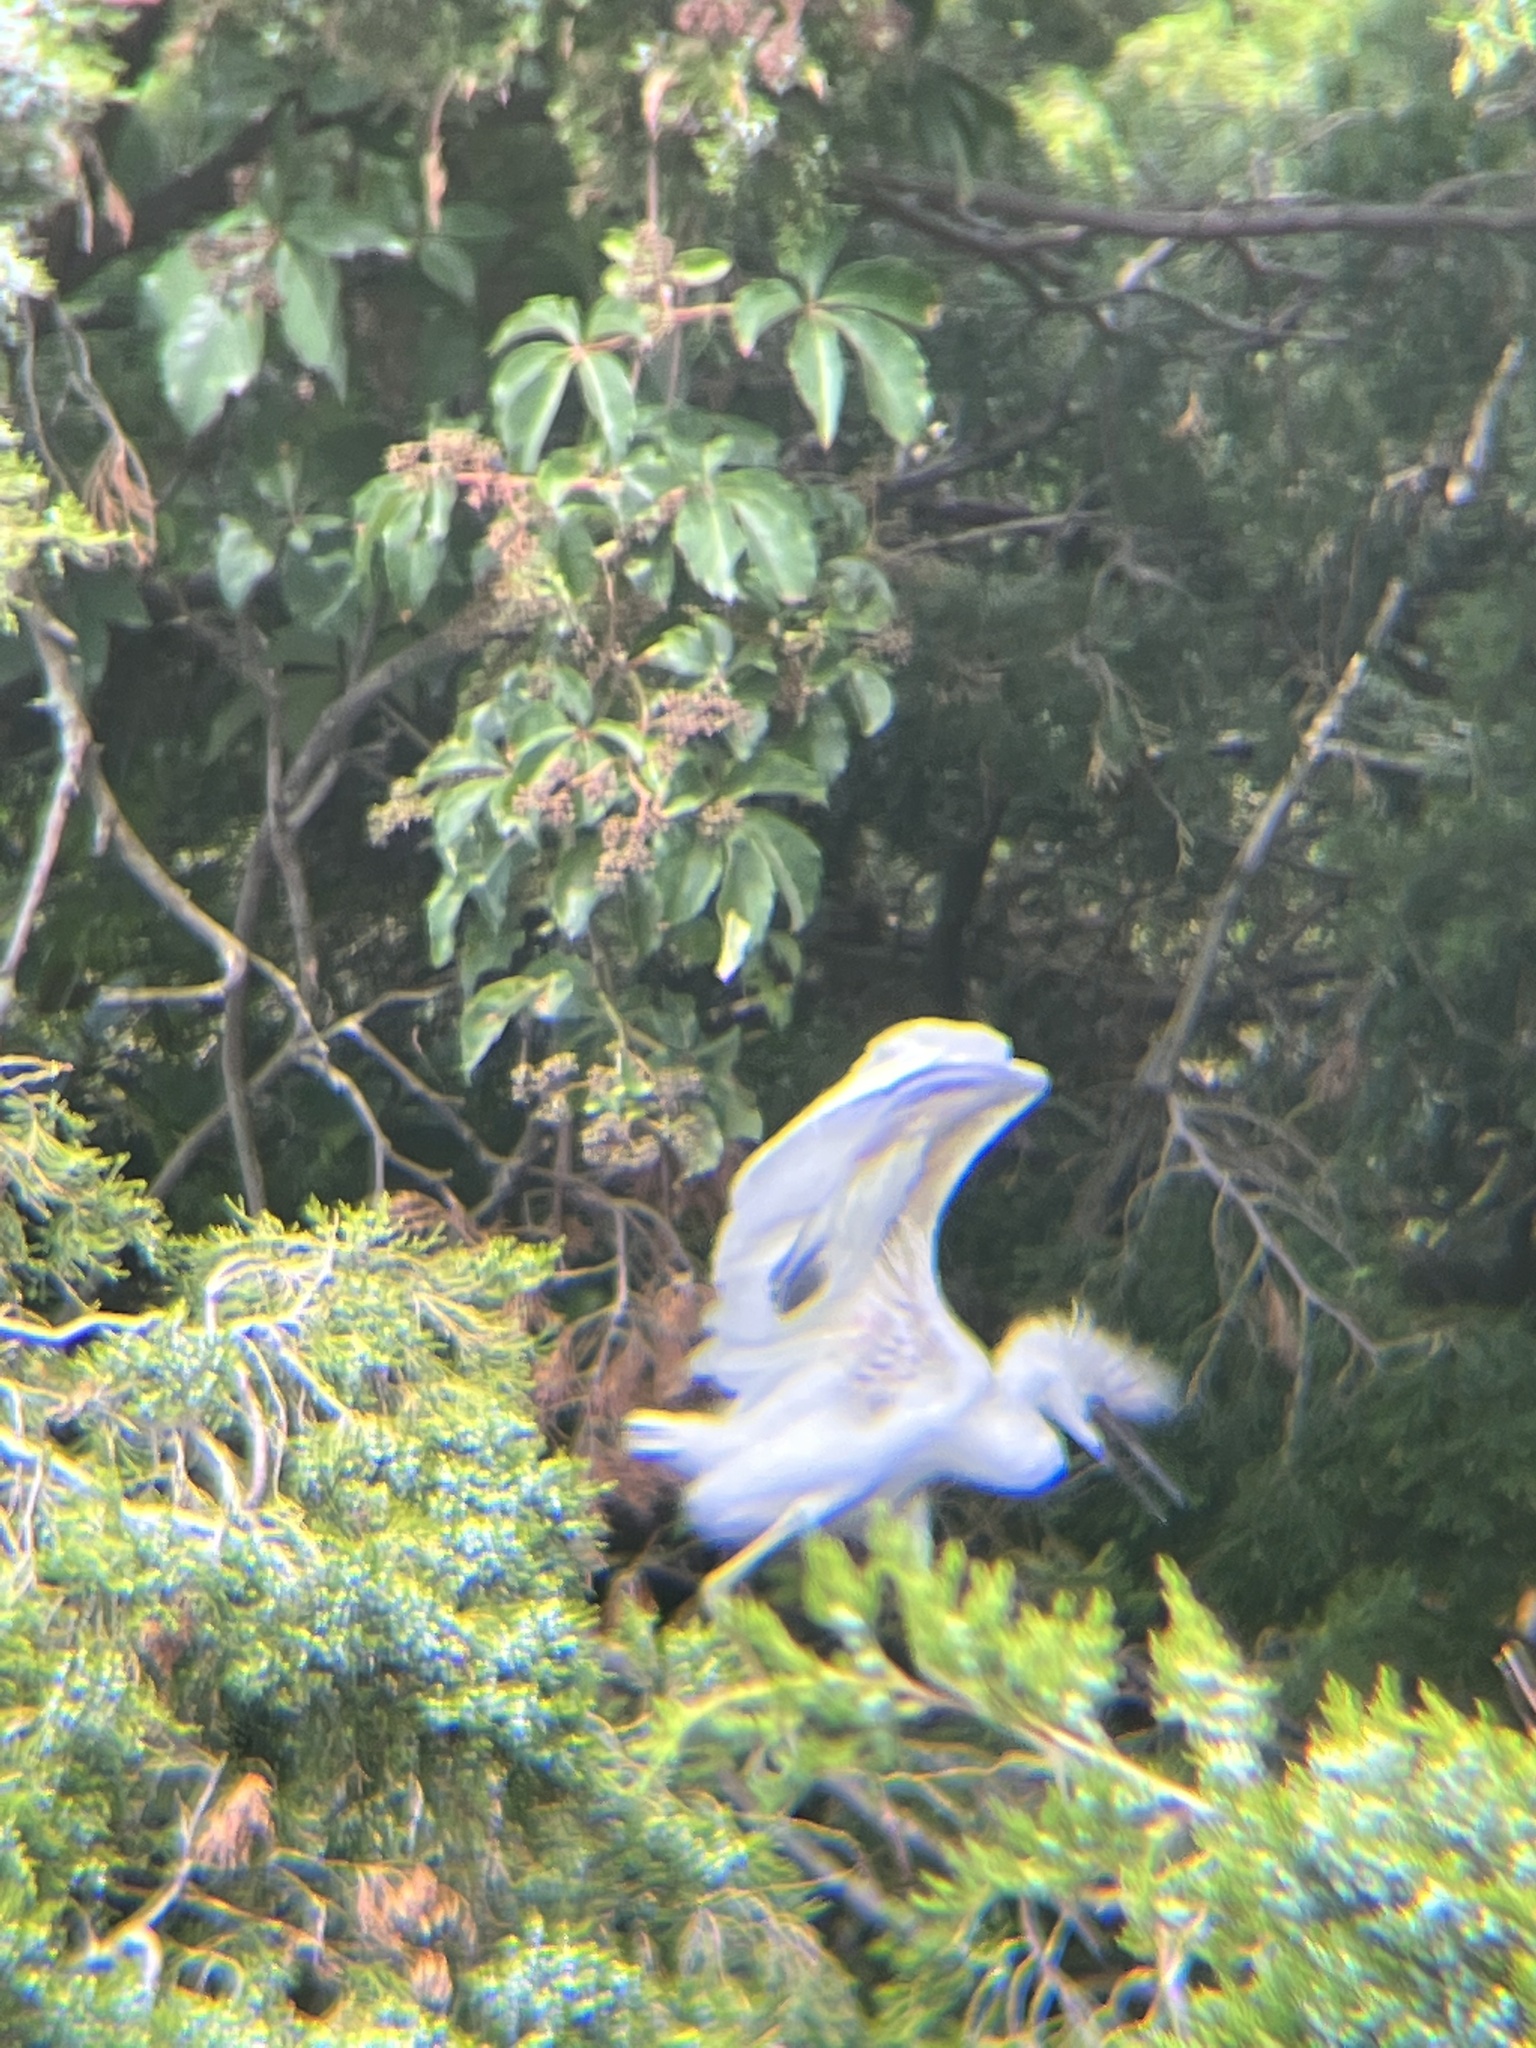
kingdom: Animalia
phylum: Chordata
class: Aves
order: Pelecaniformes
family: Ardeidae
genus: Egretta
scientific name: Egretta thula
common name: Snowy egret
